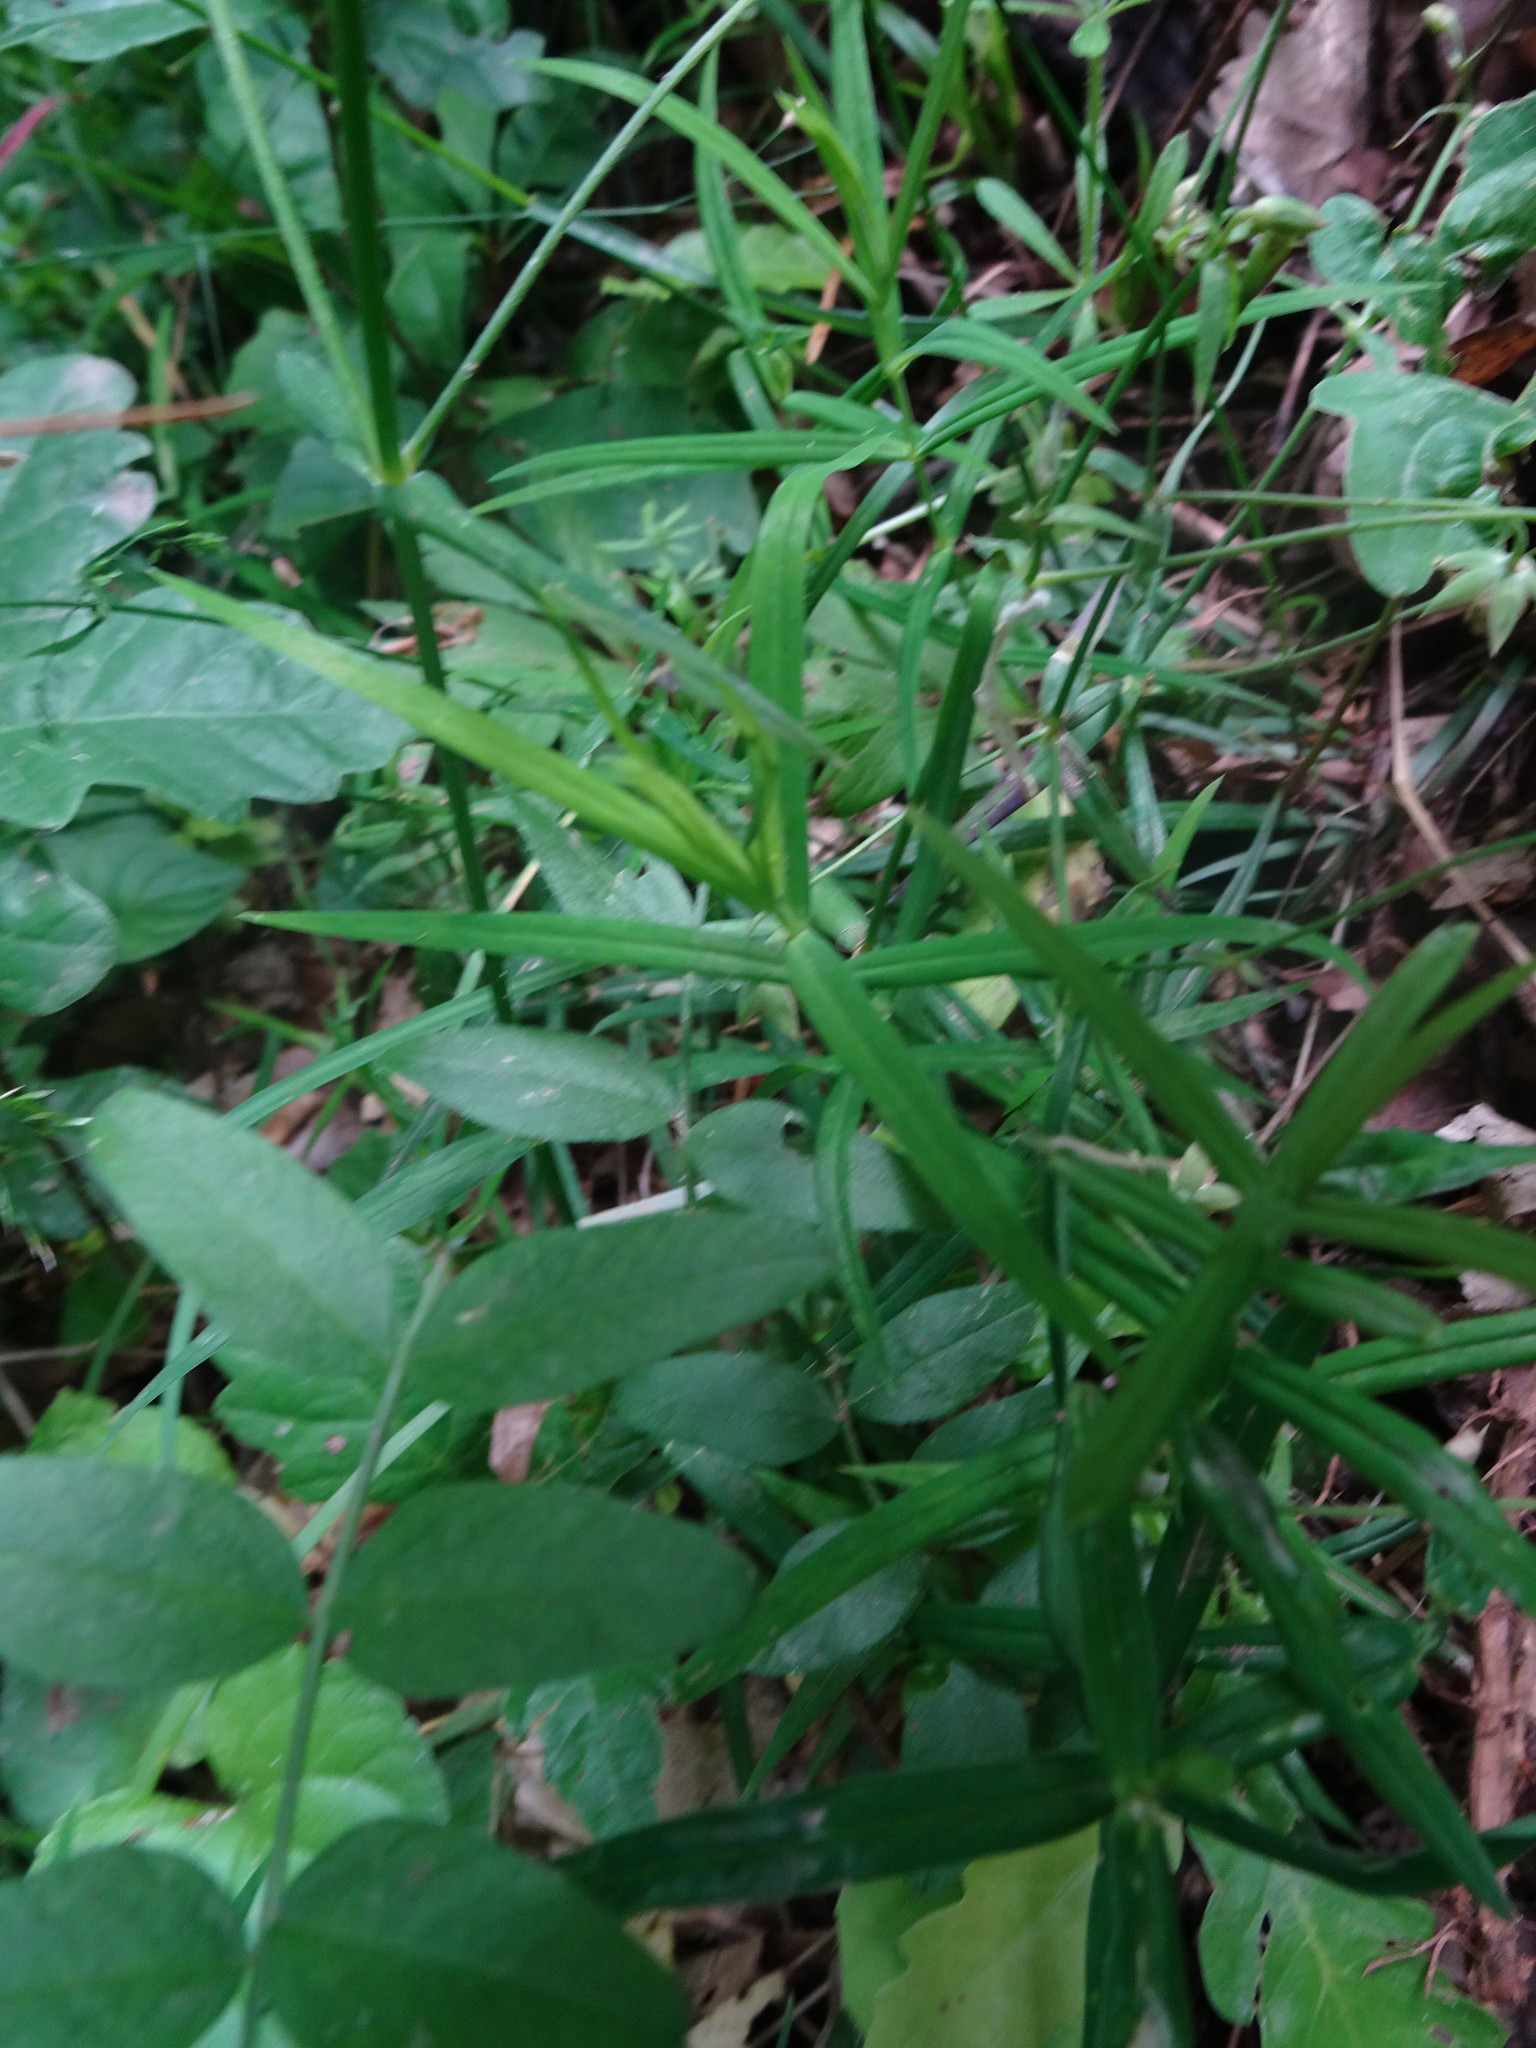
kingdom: Plantae
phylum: Tracheophyta
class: Magnoliopsida
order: Caryophyllales
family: Caryophyllaceae
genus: Rabelera
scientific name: Rabelera holostea
